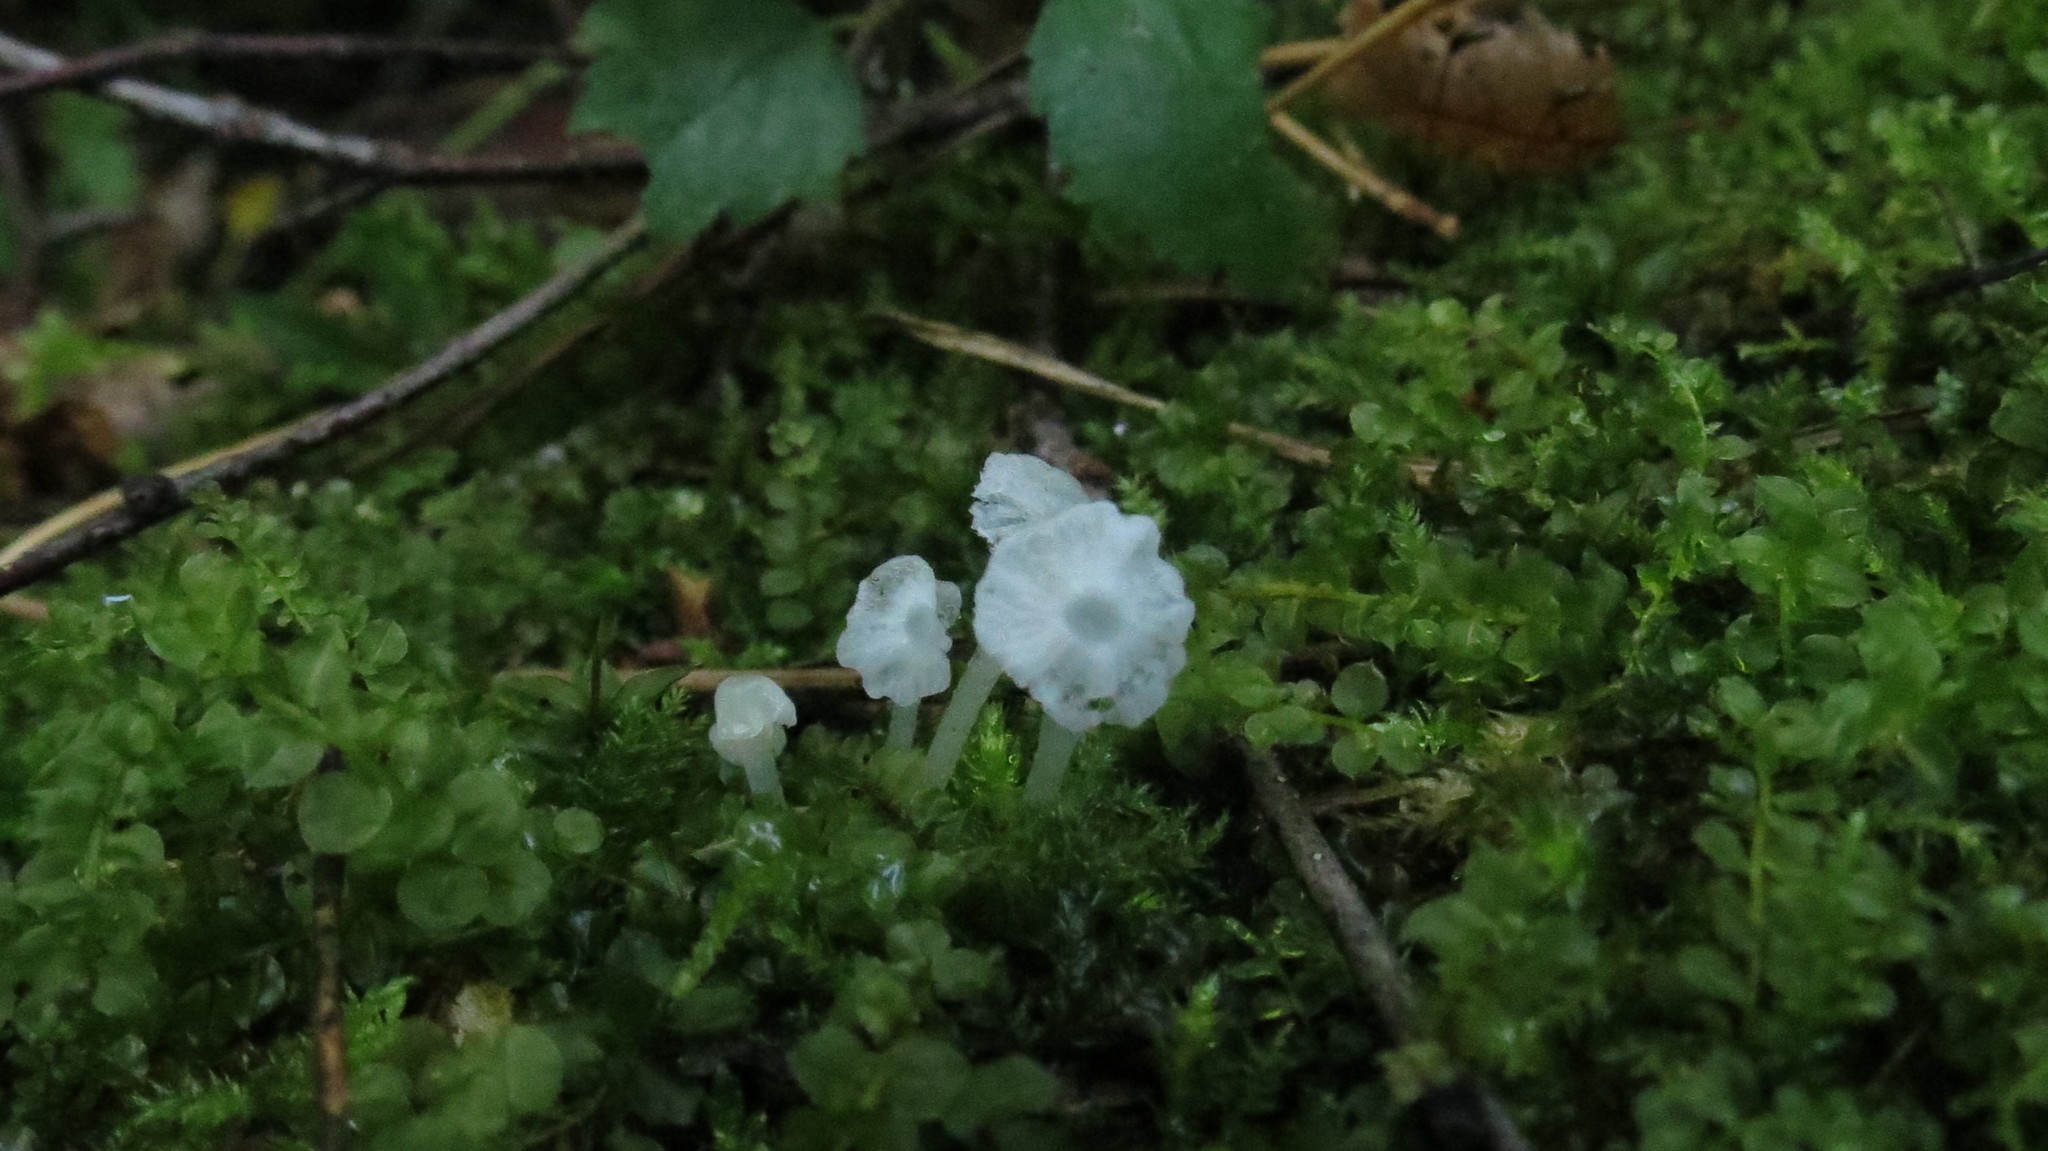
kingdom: Fungi
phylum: Basidiomycota
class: Agaricomycetes
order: Agaricales
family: Tricholomataceae
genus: Delicatula
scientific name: Delicatula integrella
